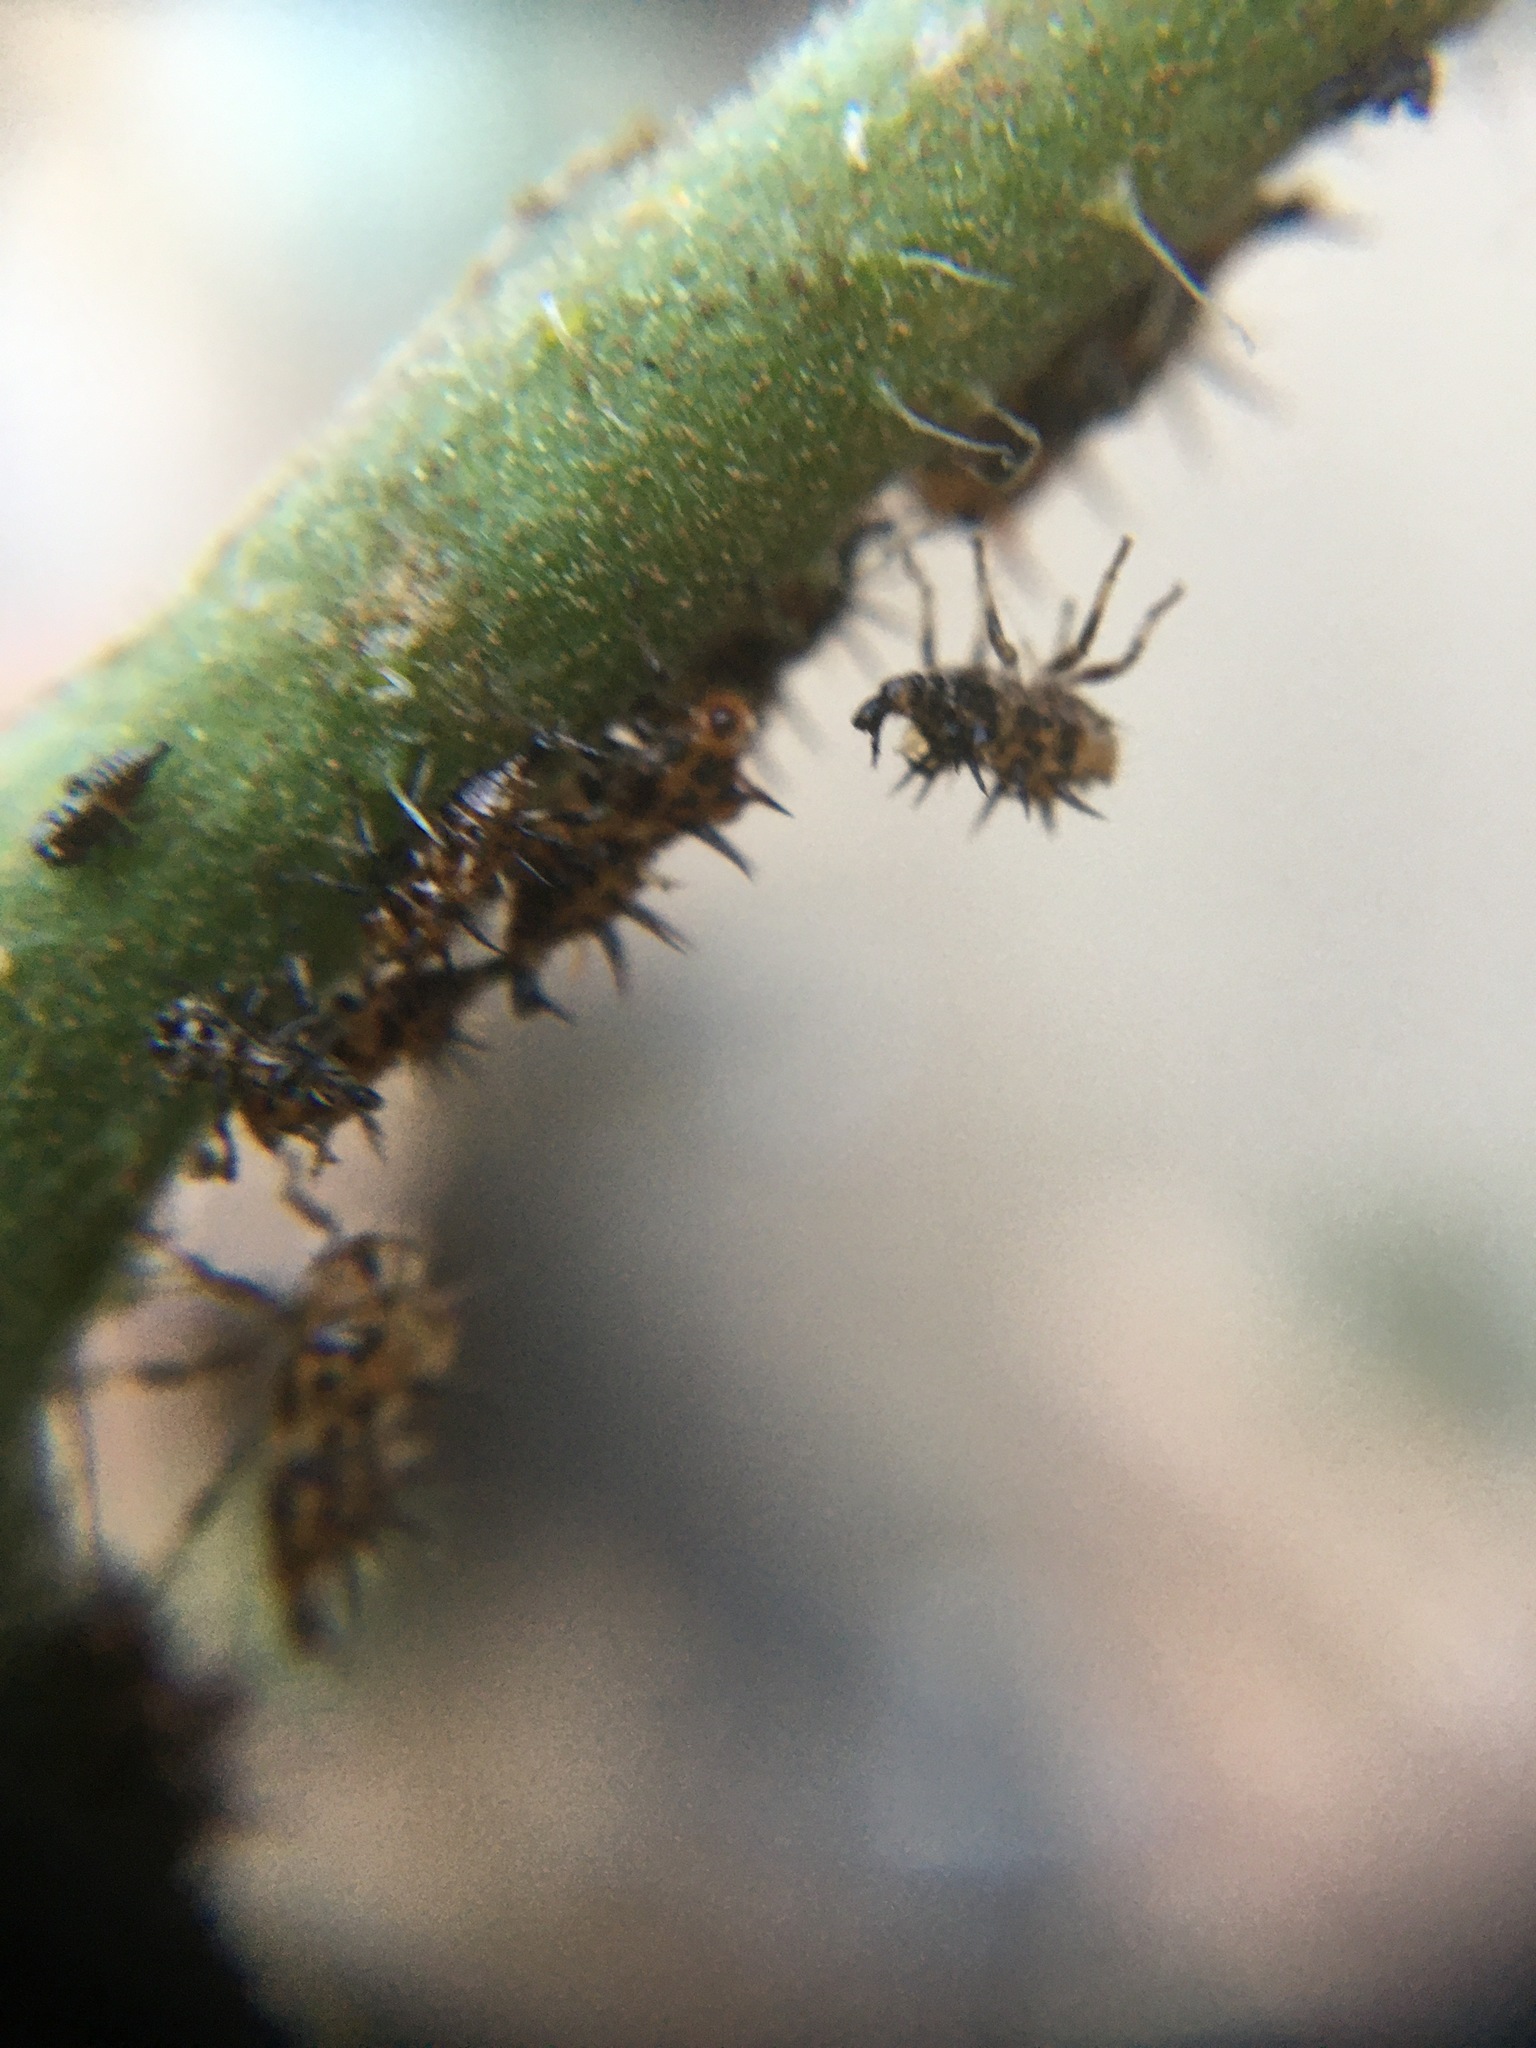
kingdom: Animalia
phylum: Arthropoda
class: Insecta
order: Hemiptera
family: Membracidae
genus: Antianthe
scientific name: Antianthe expansa
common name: Keeled tree hopper
